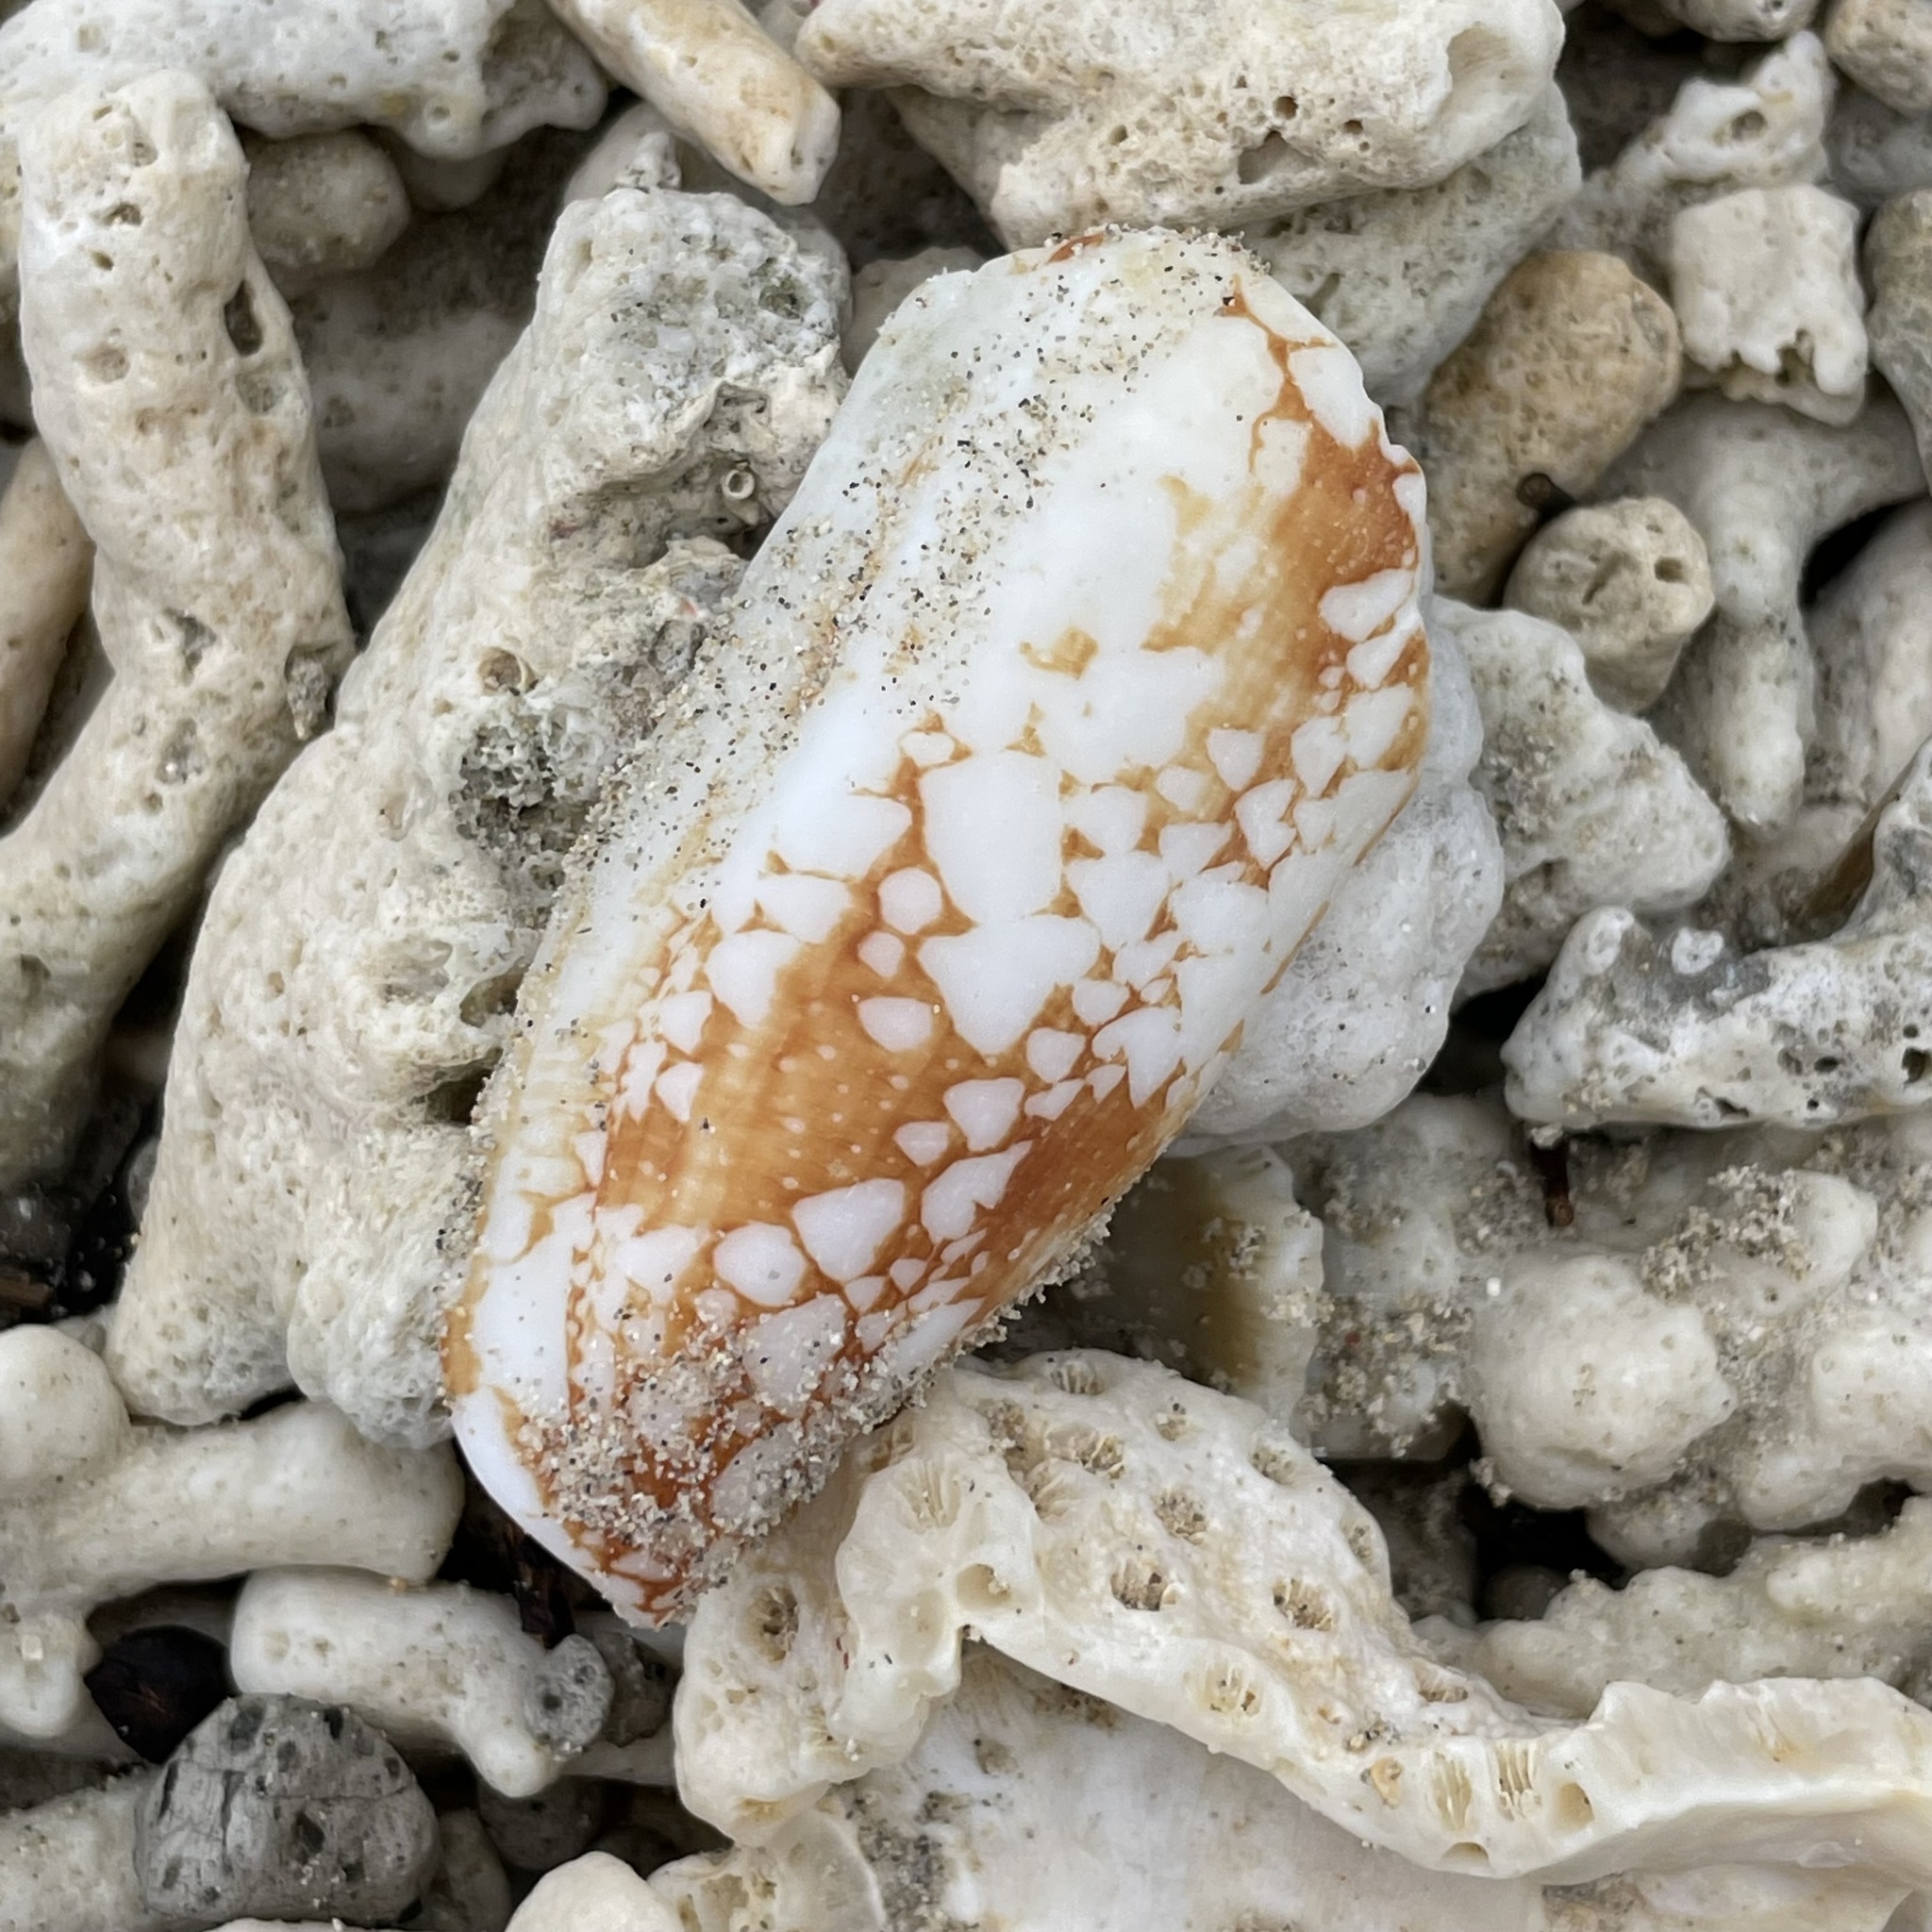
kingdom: Animalia
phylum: Mollusca
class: Gastropoda
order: Neogastropoda
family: Conidae
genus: Conus
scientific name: Conus aulicus
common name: Court cone
